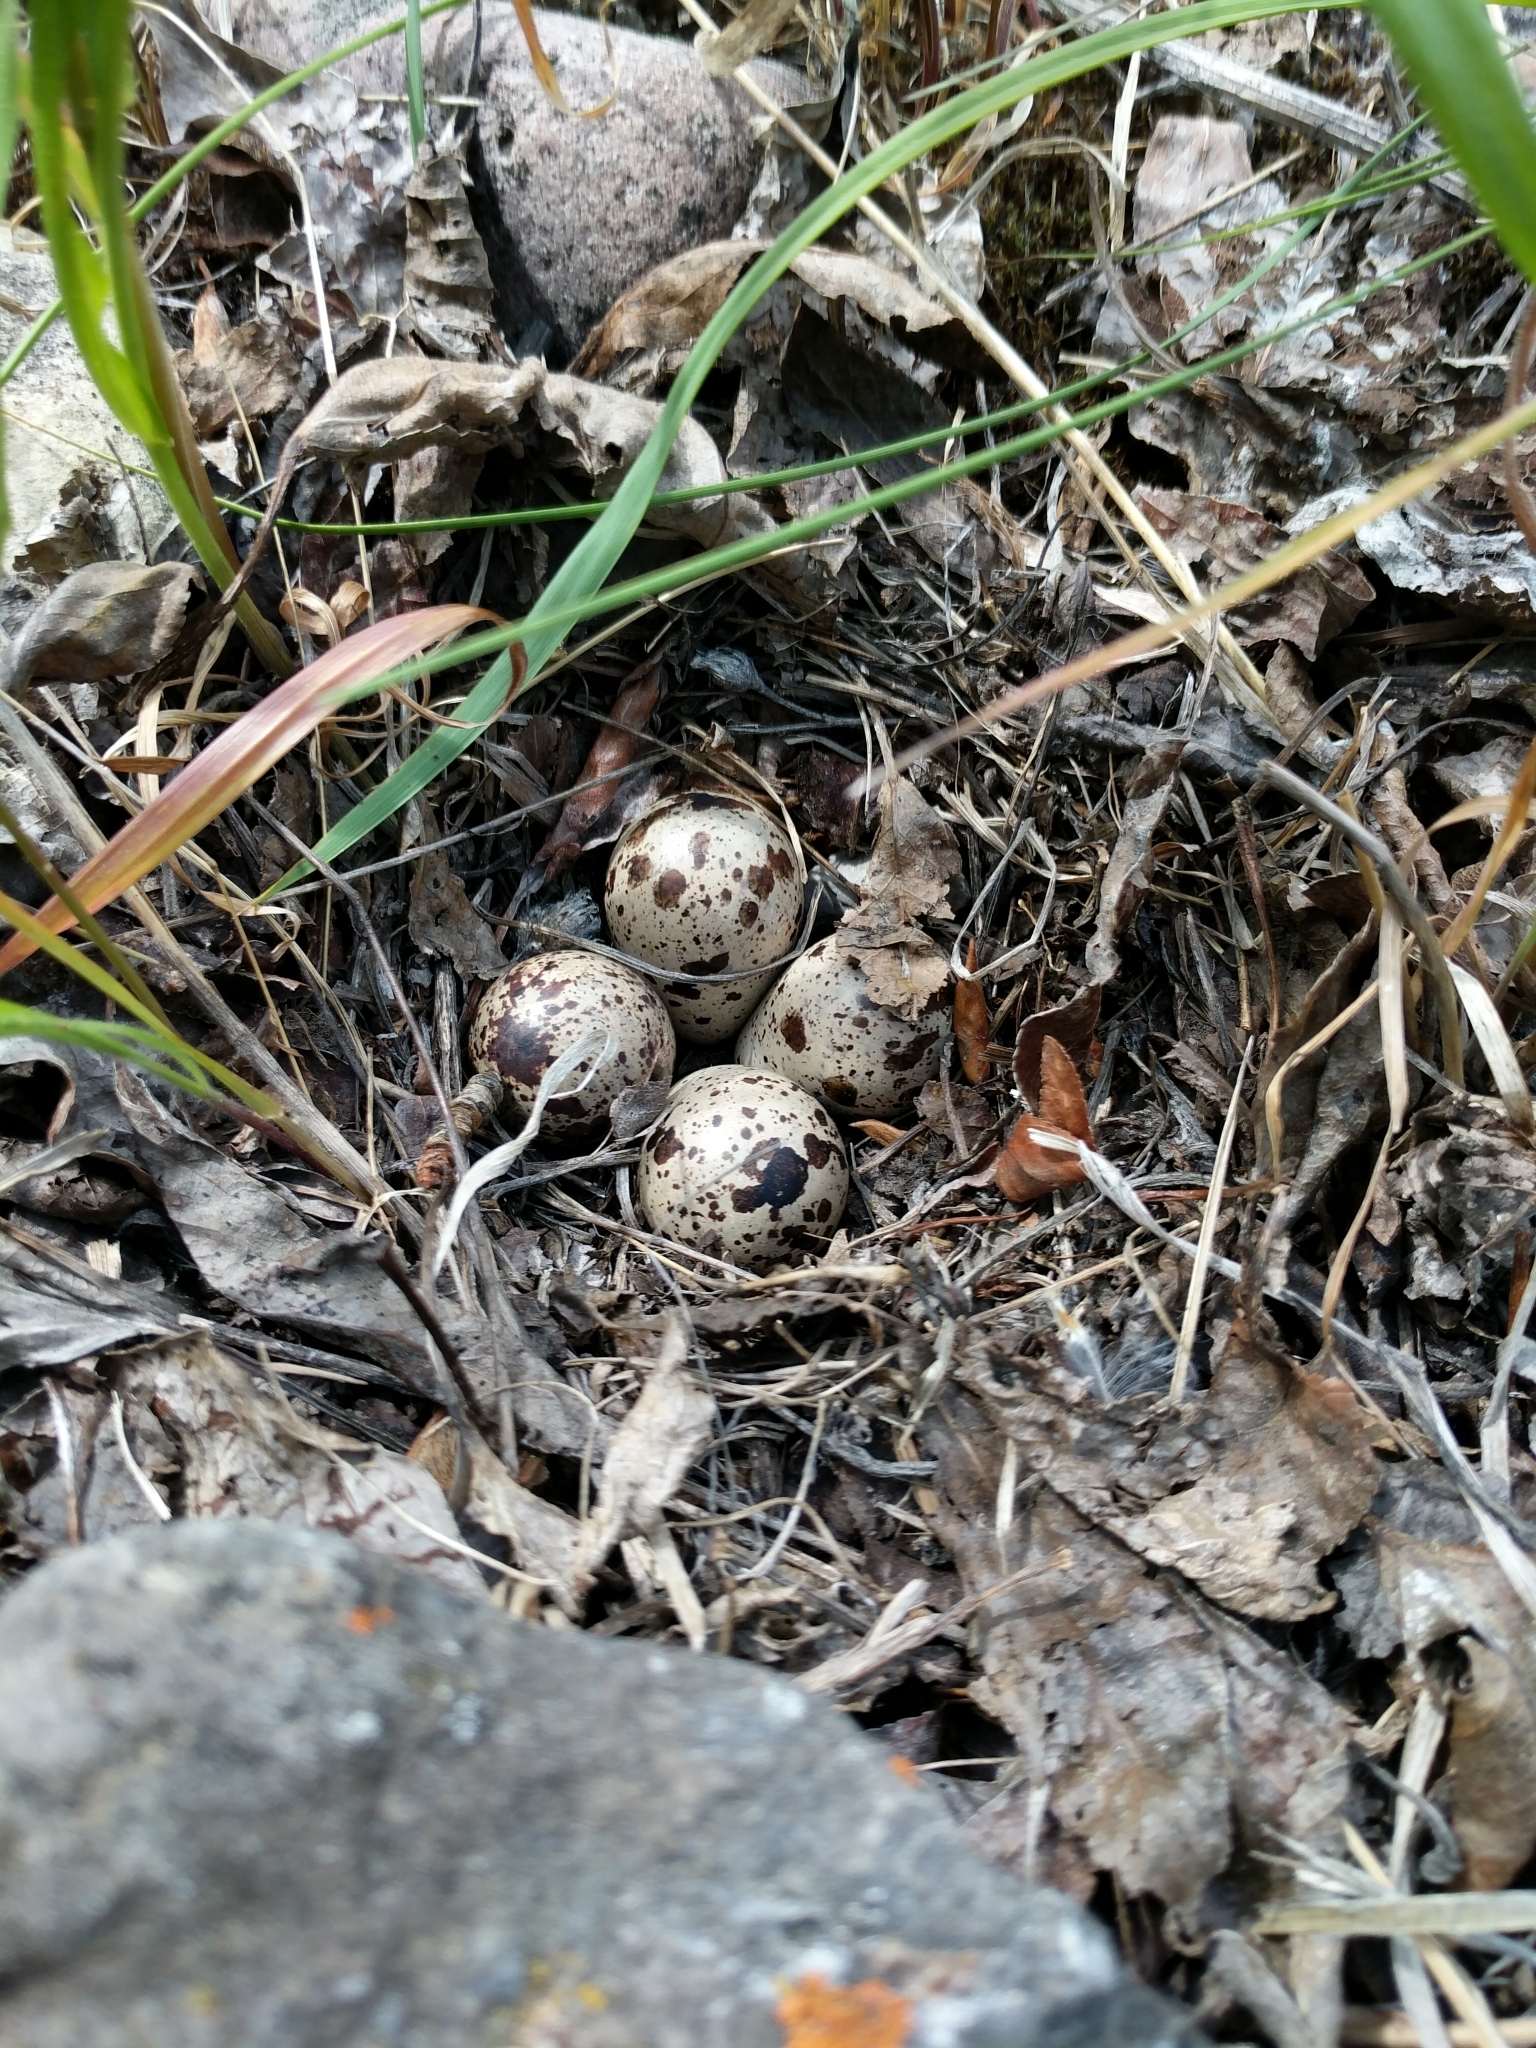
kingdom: Animalia
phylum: Chordata
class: Aves
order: Charadriiformes
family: Scolopacidae
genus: Actitis
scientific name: Actitis macularius
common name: Spotted sandpiper
